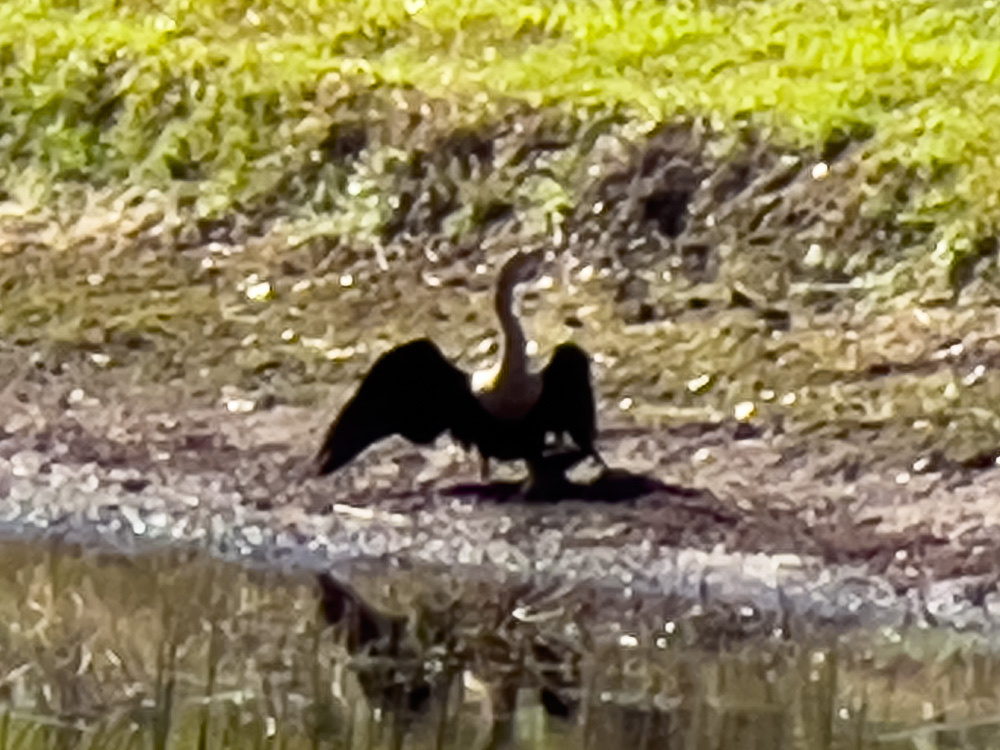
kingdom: Animalia
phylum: Chordata
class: Aves
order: Suliformes
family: Anhingidae
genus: Anhinga
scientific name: Anhinga anhinga
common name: Anhinga
